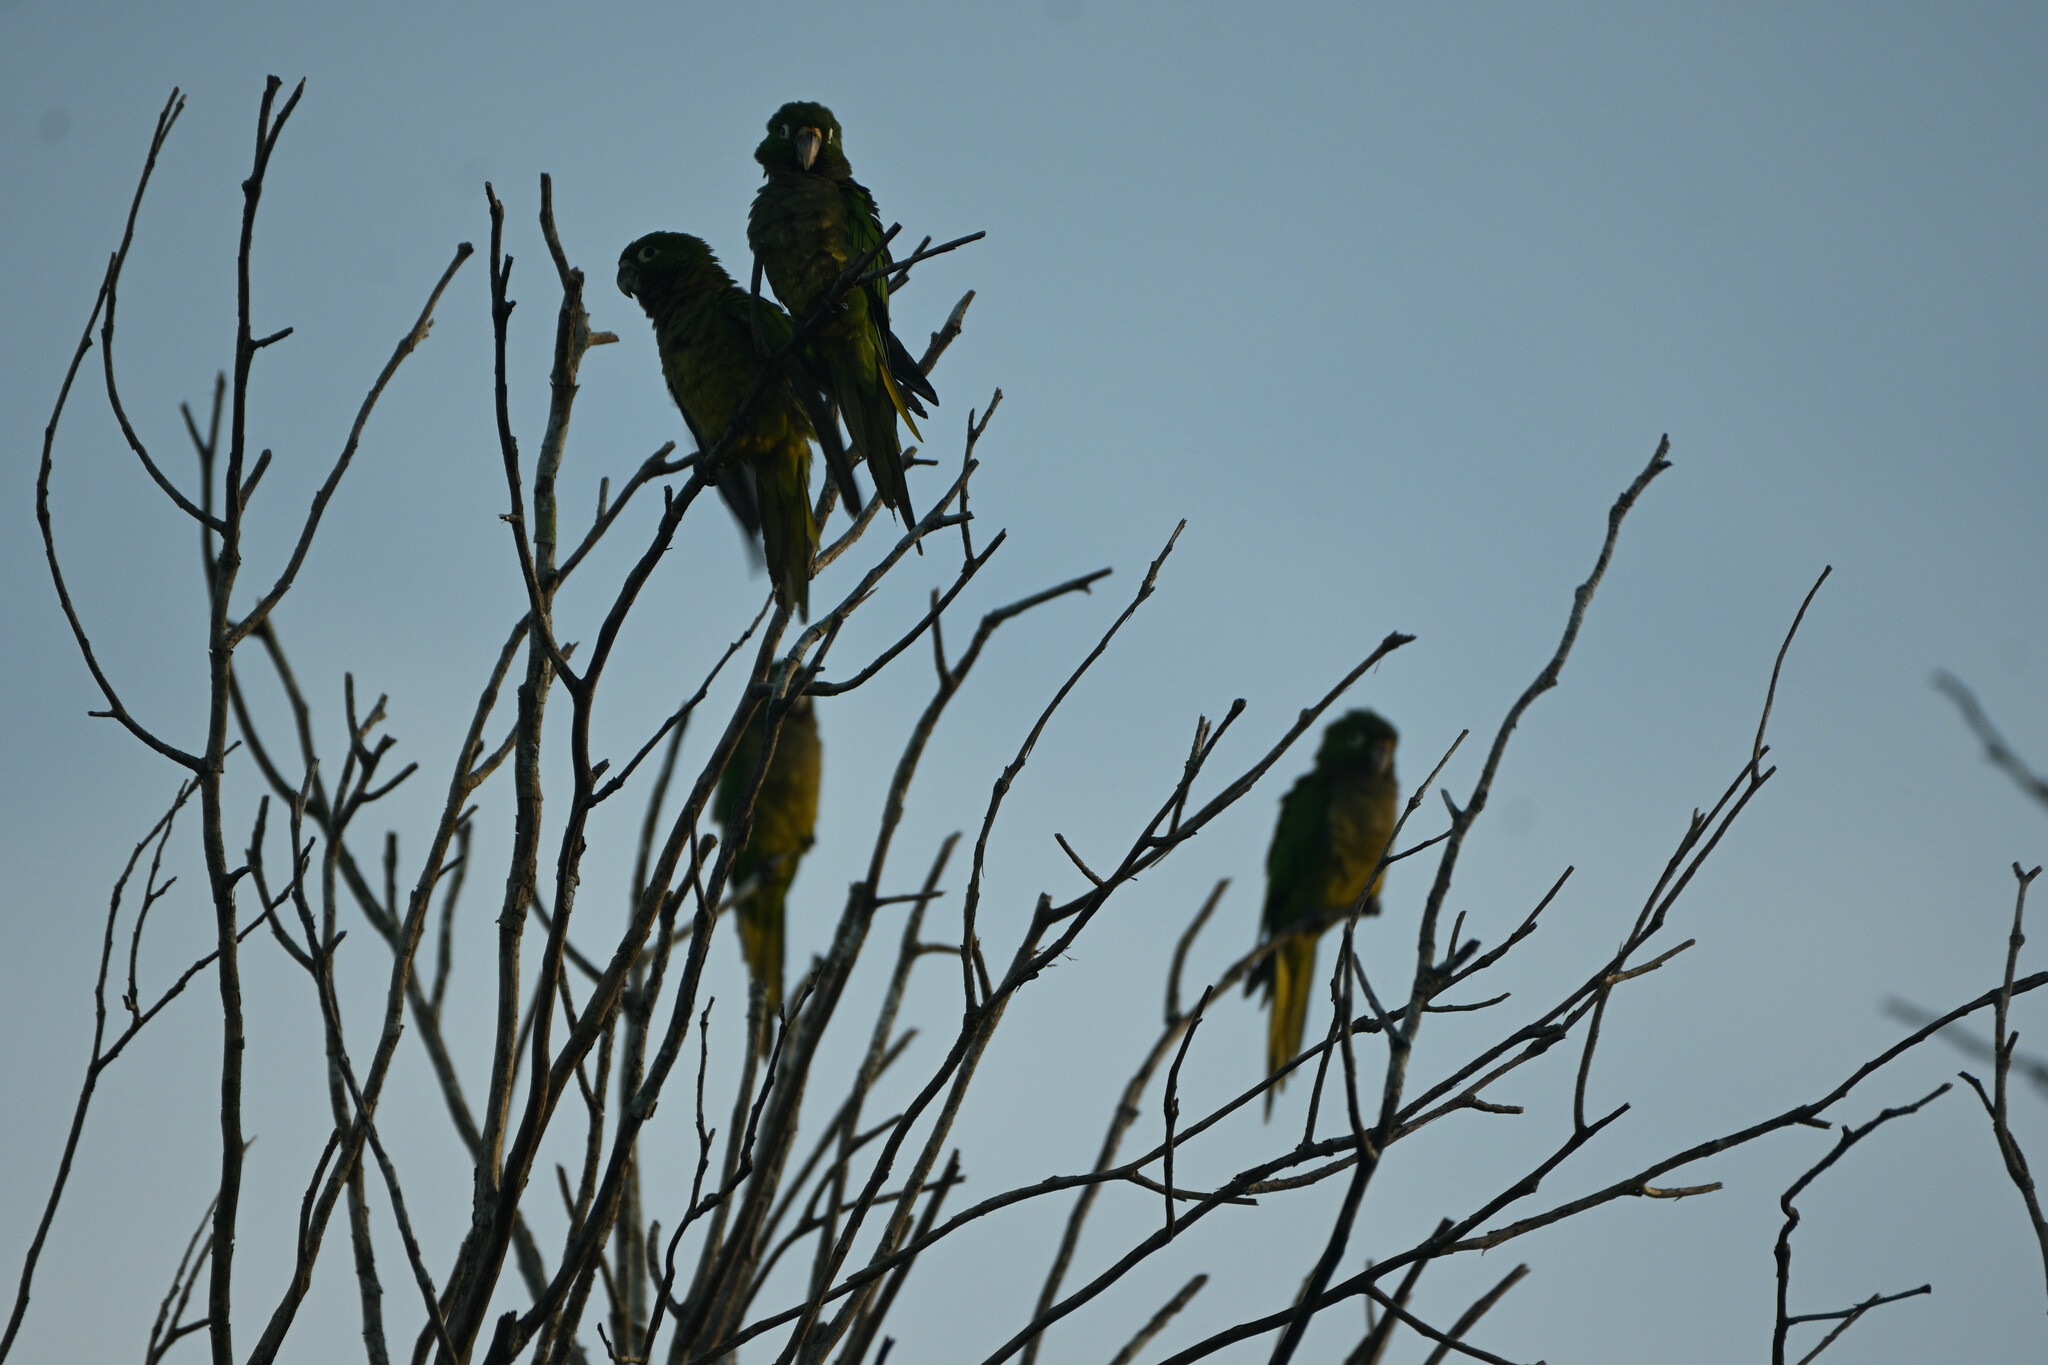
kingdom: Animalia
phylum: Chordata
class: Aves
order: Psittaciformes
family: Psittacidae
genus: Aratinga
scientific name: Aratinga nana
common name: Olive-throated parakeet
